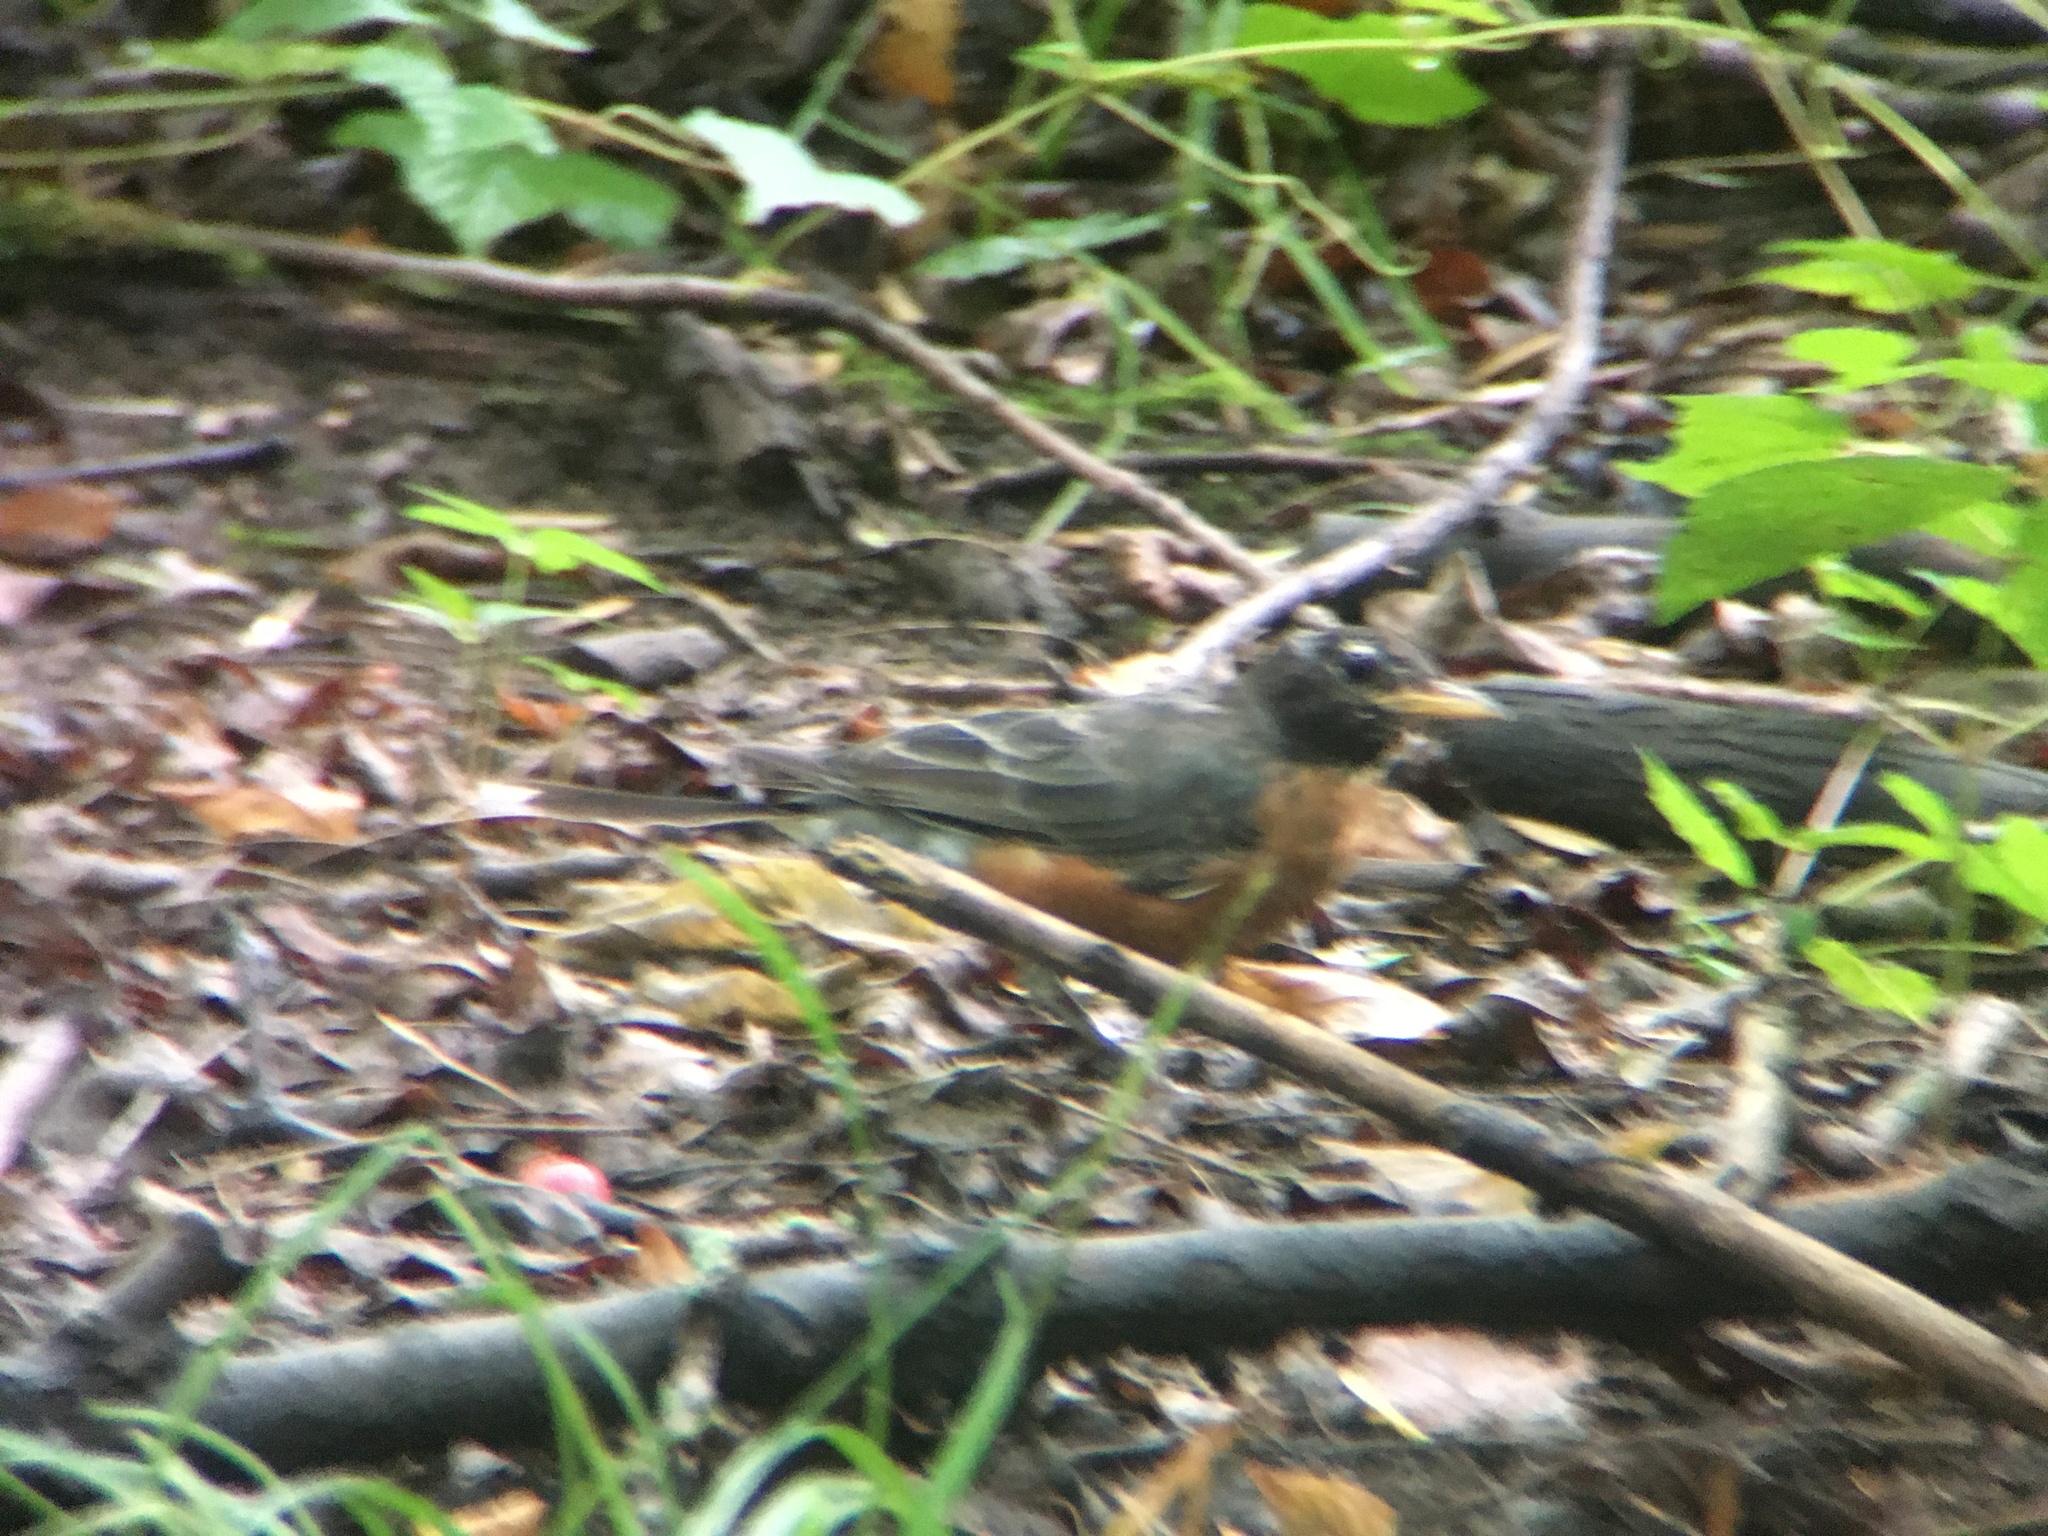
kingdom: Animalia
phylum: Chordata
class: Aves
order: Passeriformes
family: Turdidae
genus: Turdus
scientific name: Turdus migratorius
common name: American robin
